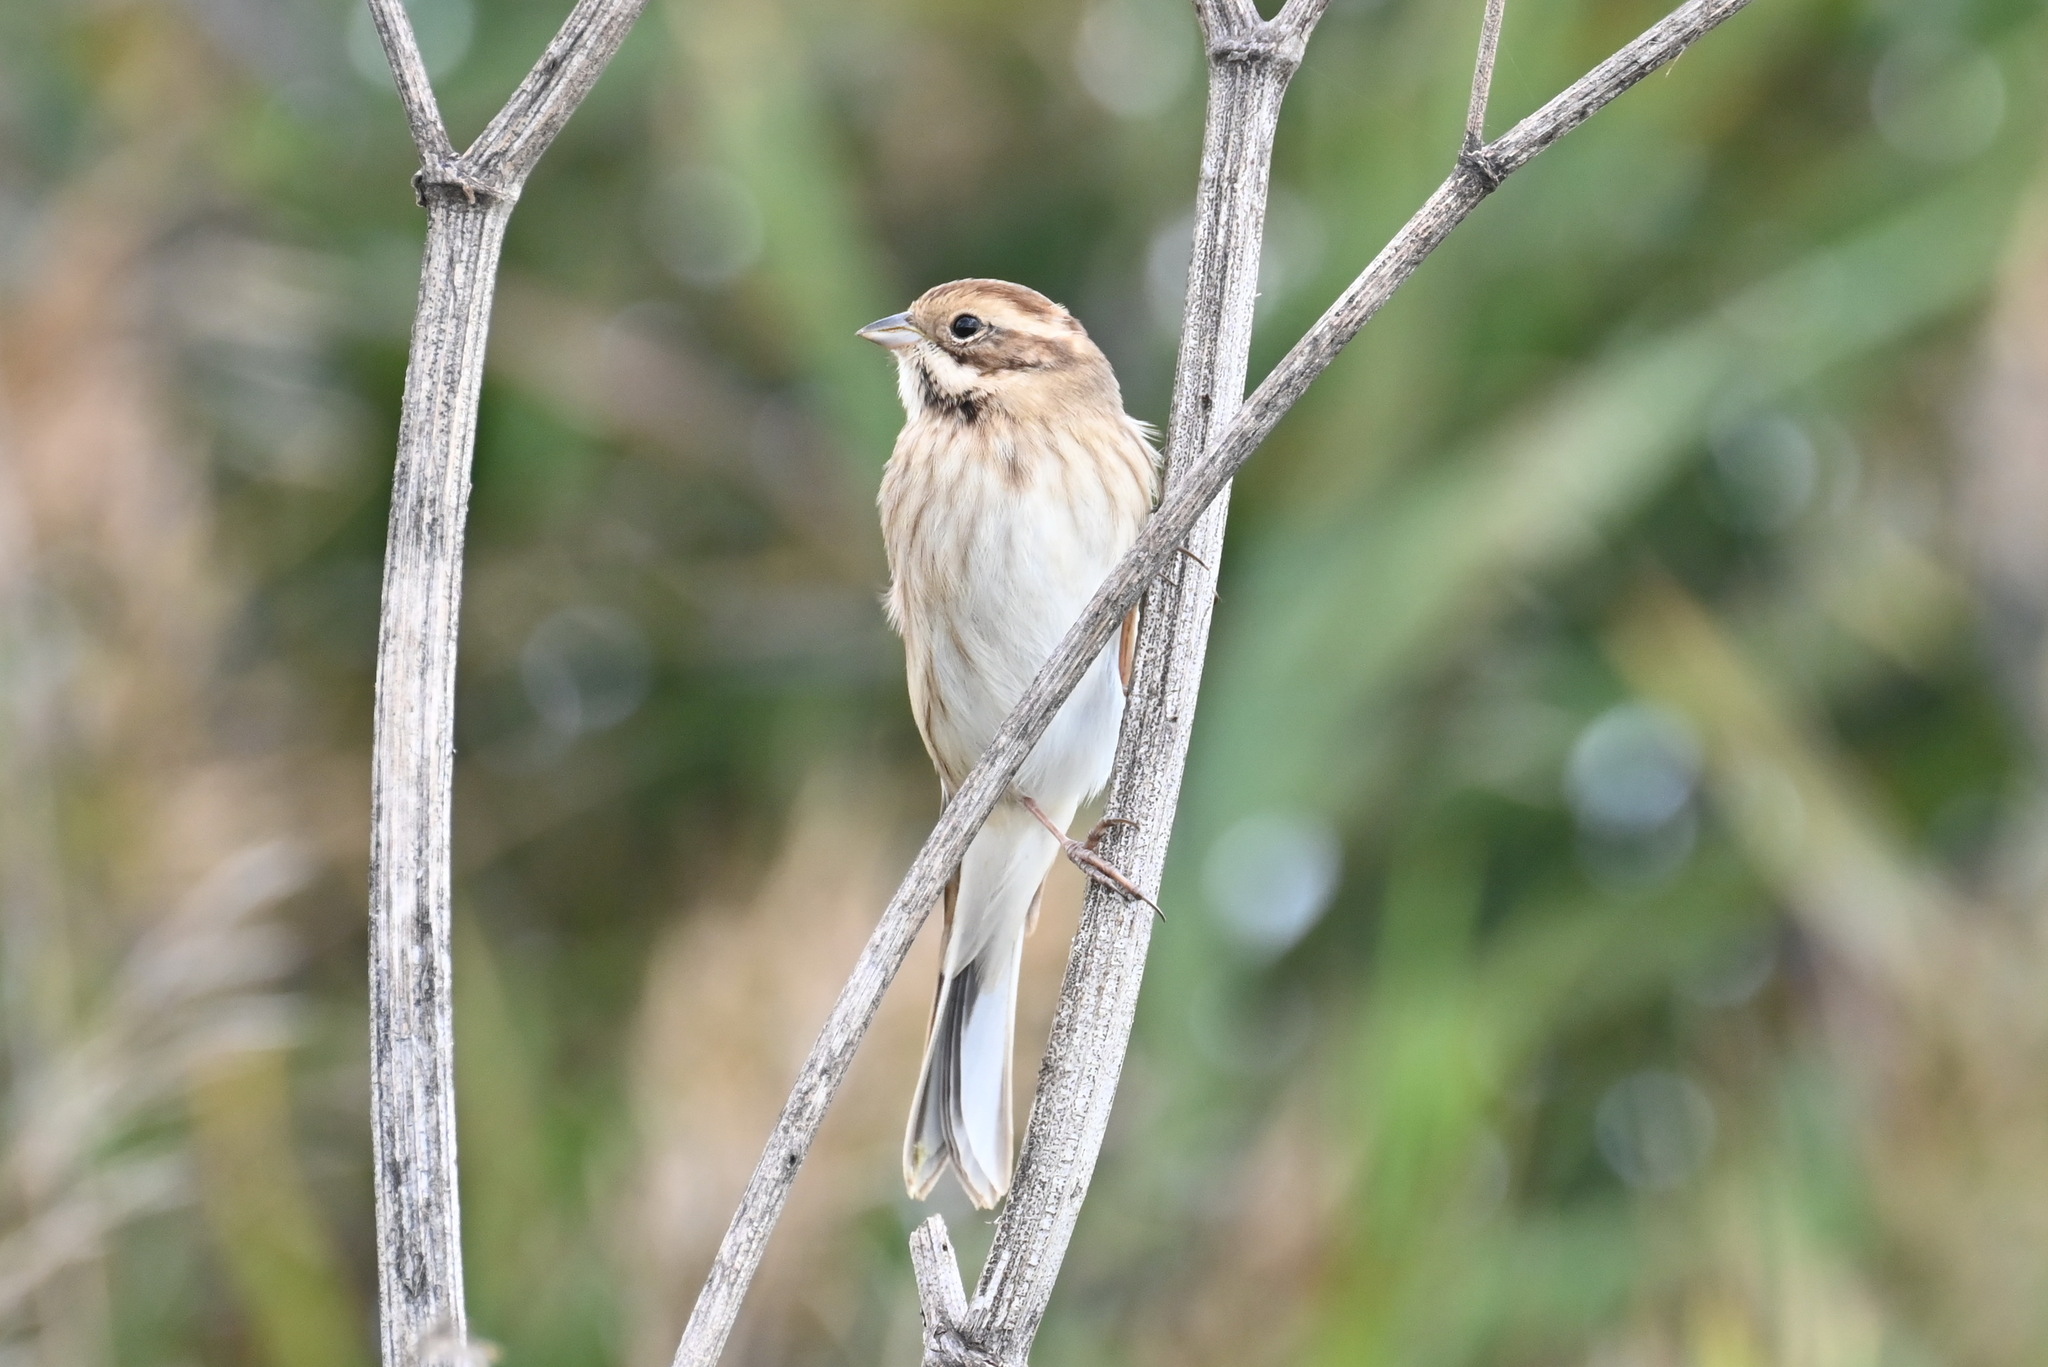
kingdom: Animalia
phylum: Chordata
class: Aves
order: Passeriformes
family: Emberizidae
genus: Emberiza
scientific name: Emberiza schoeniclus
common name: Reed bunting
